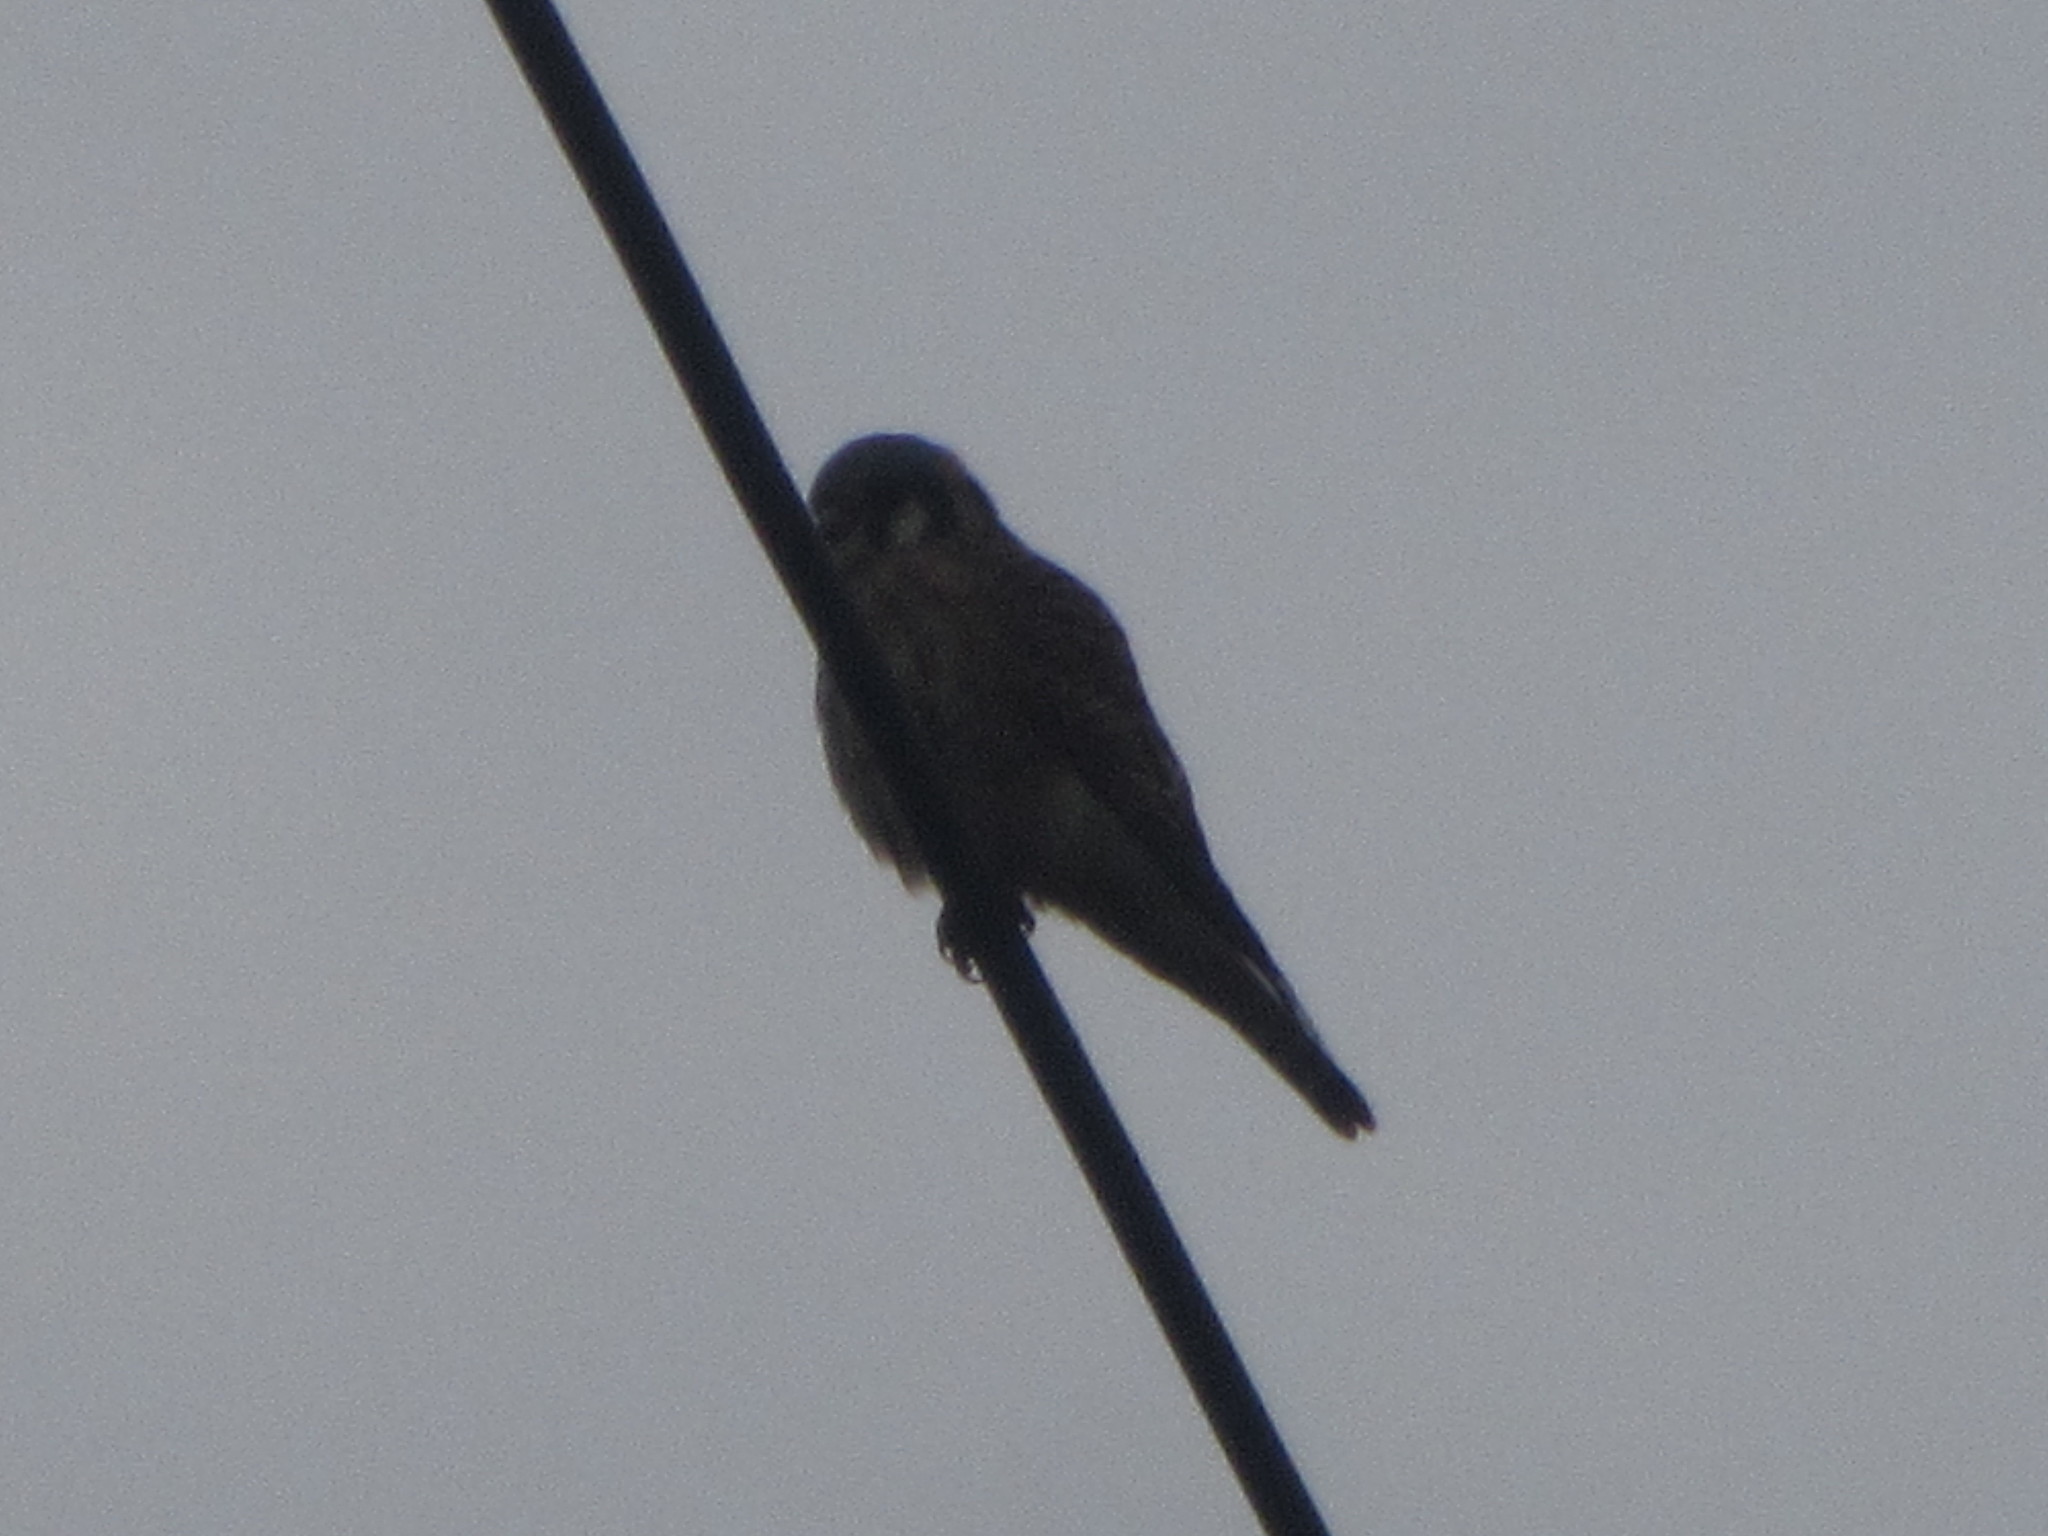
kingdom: Animalia
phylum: Chordata
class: Aves
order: Falconiformes
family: Falconidae
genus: Falco
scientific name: Falco sparverius
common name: American kestrel
